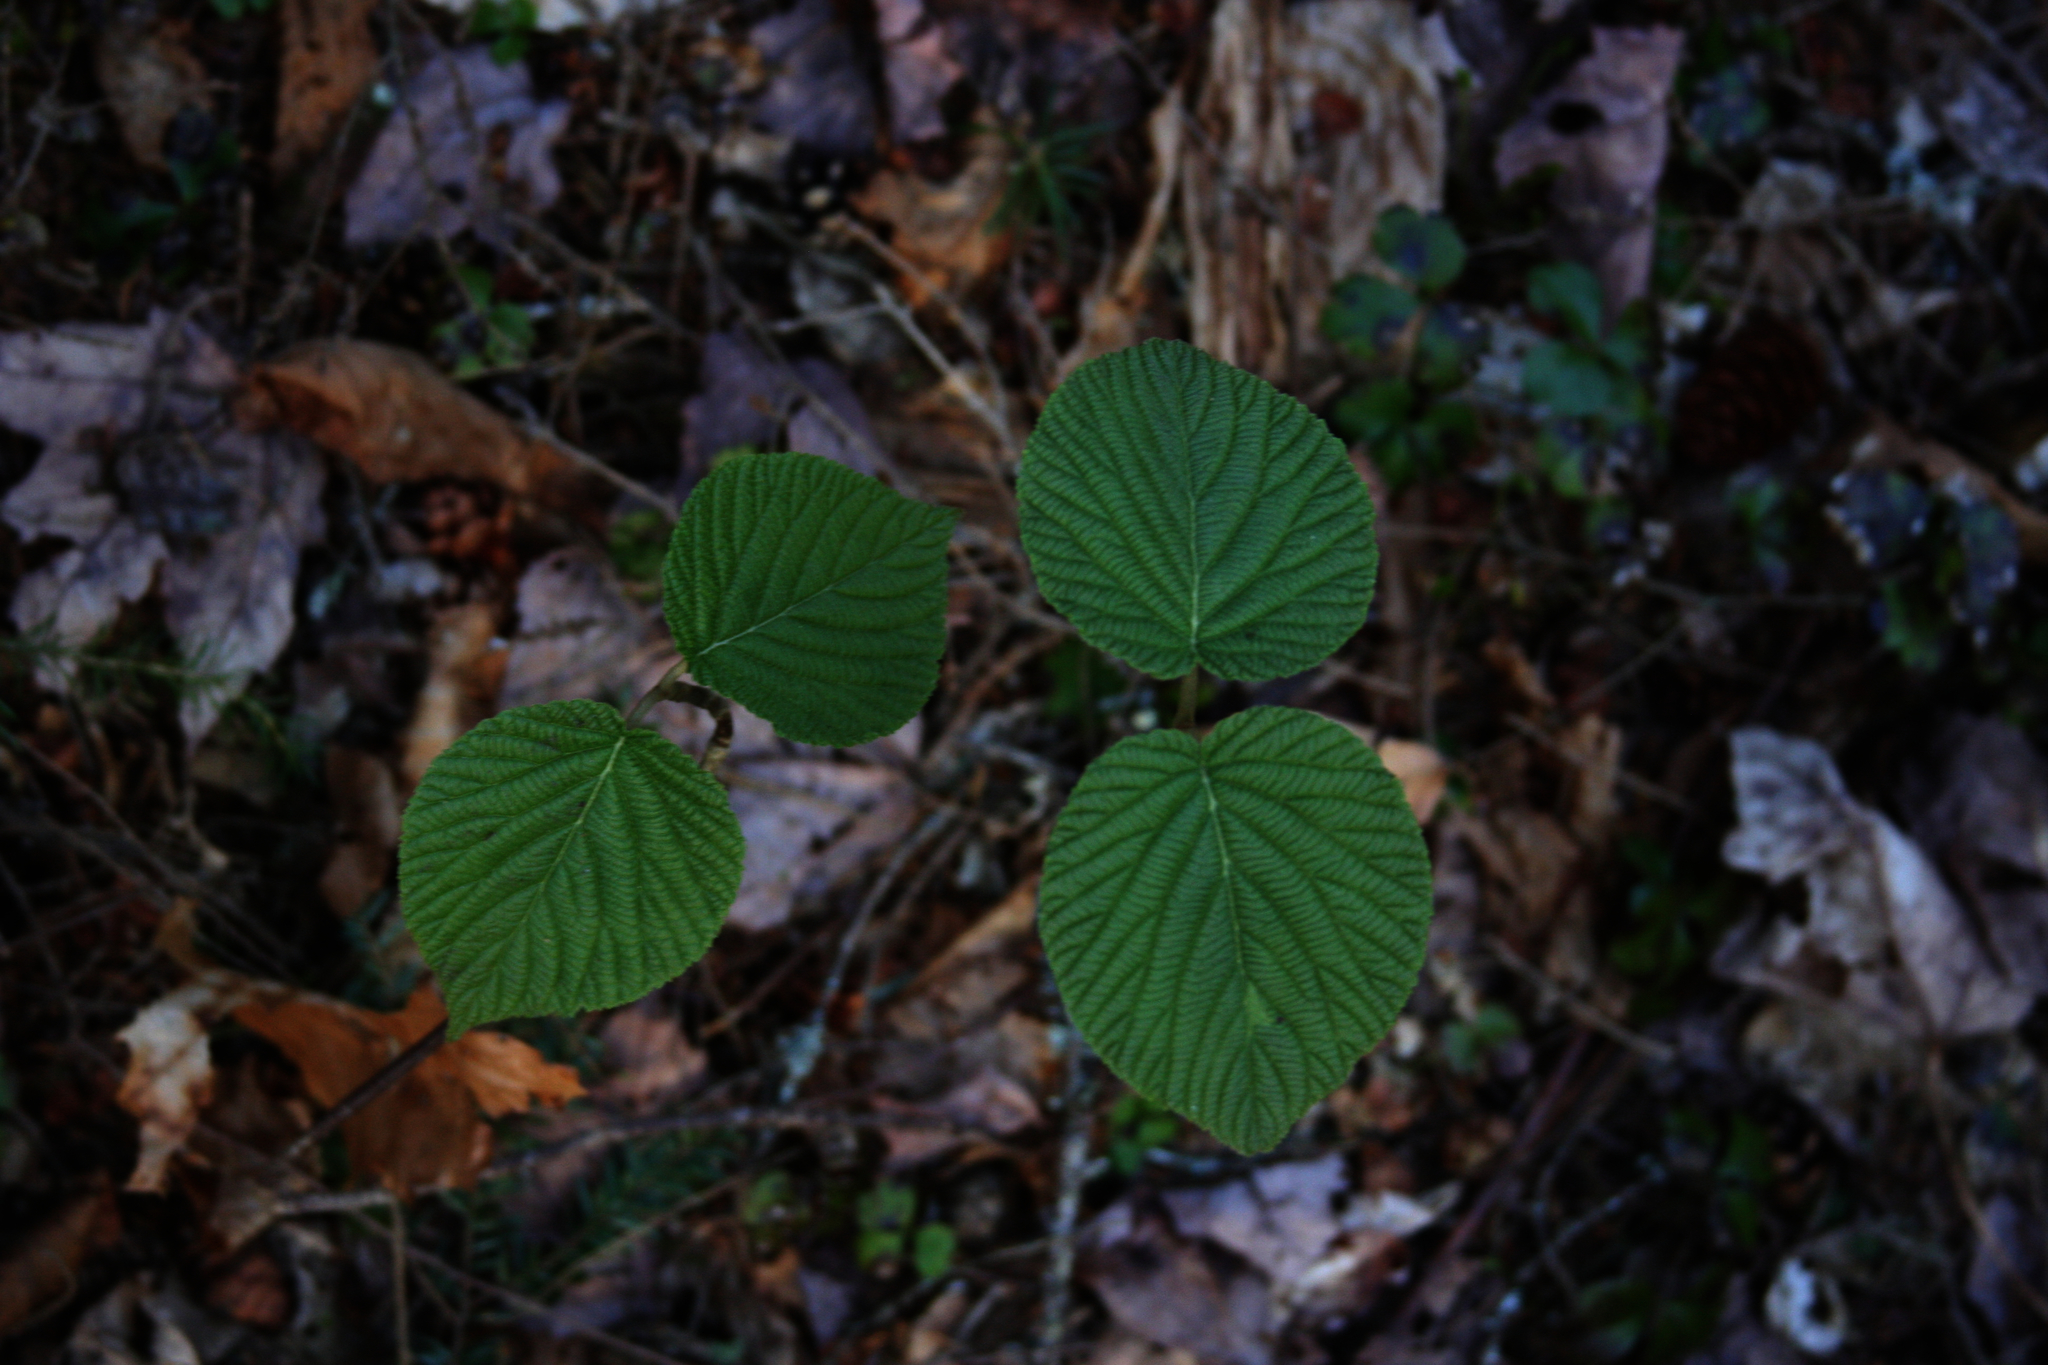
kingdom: Plantae
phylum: Tracheophyta
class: Magnoliopsida
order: Dipsacales
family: Viburnaceae
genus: Viburnum
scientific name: Viburnum lantanoides
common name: Hobblebush
